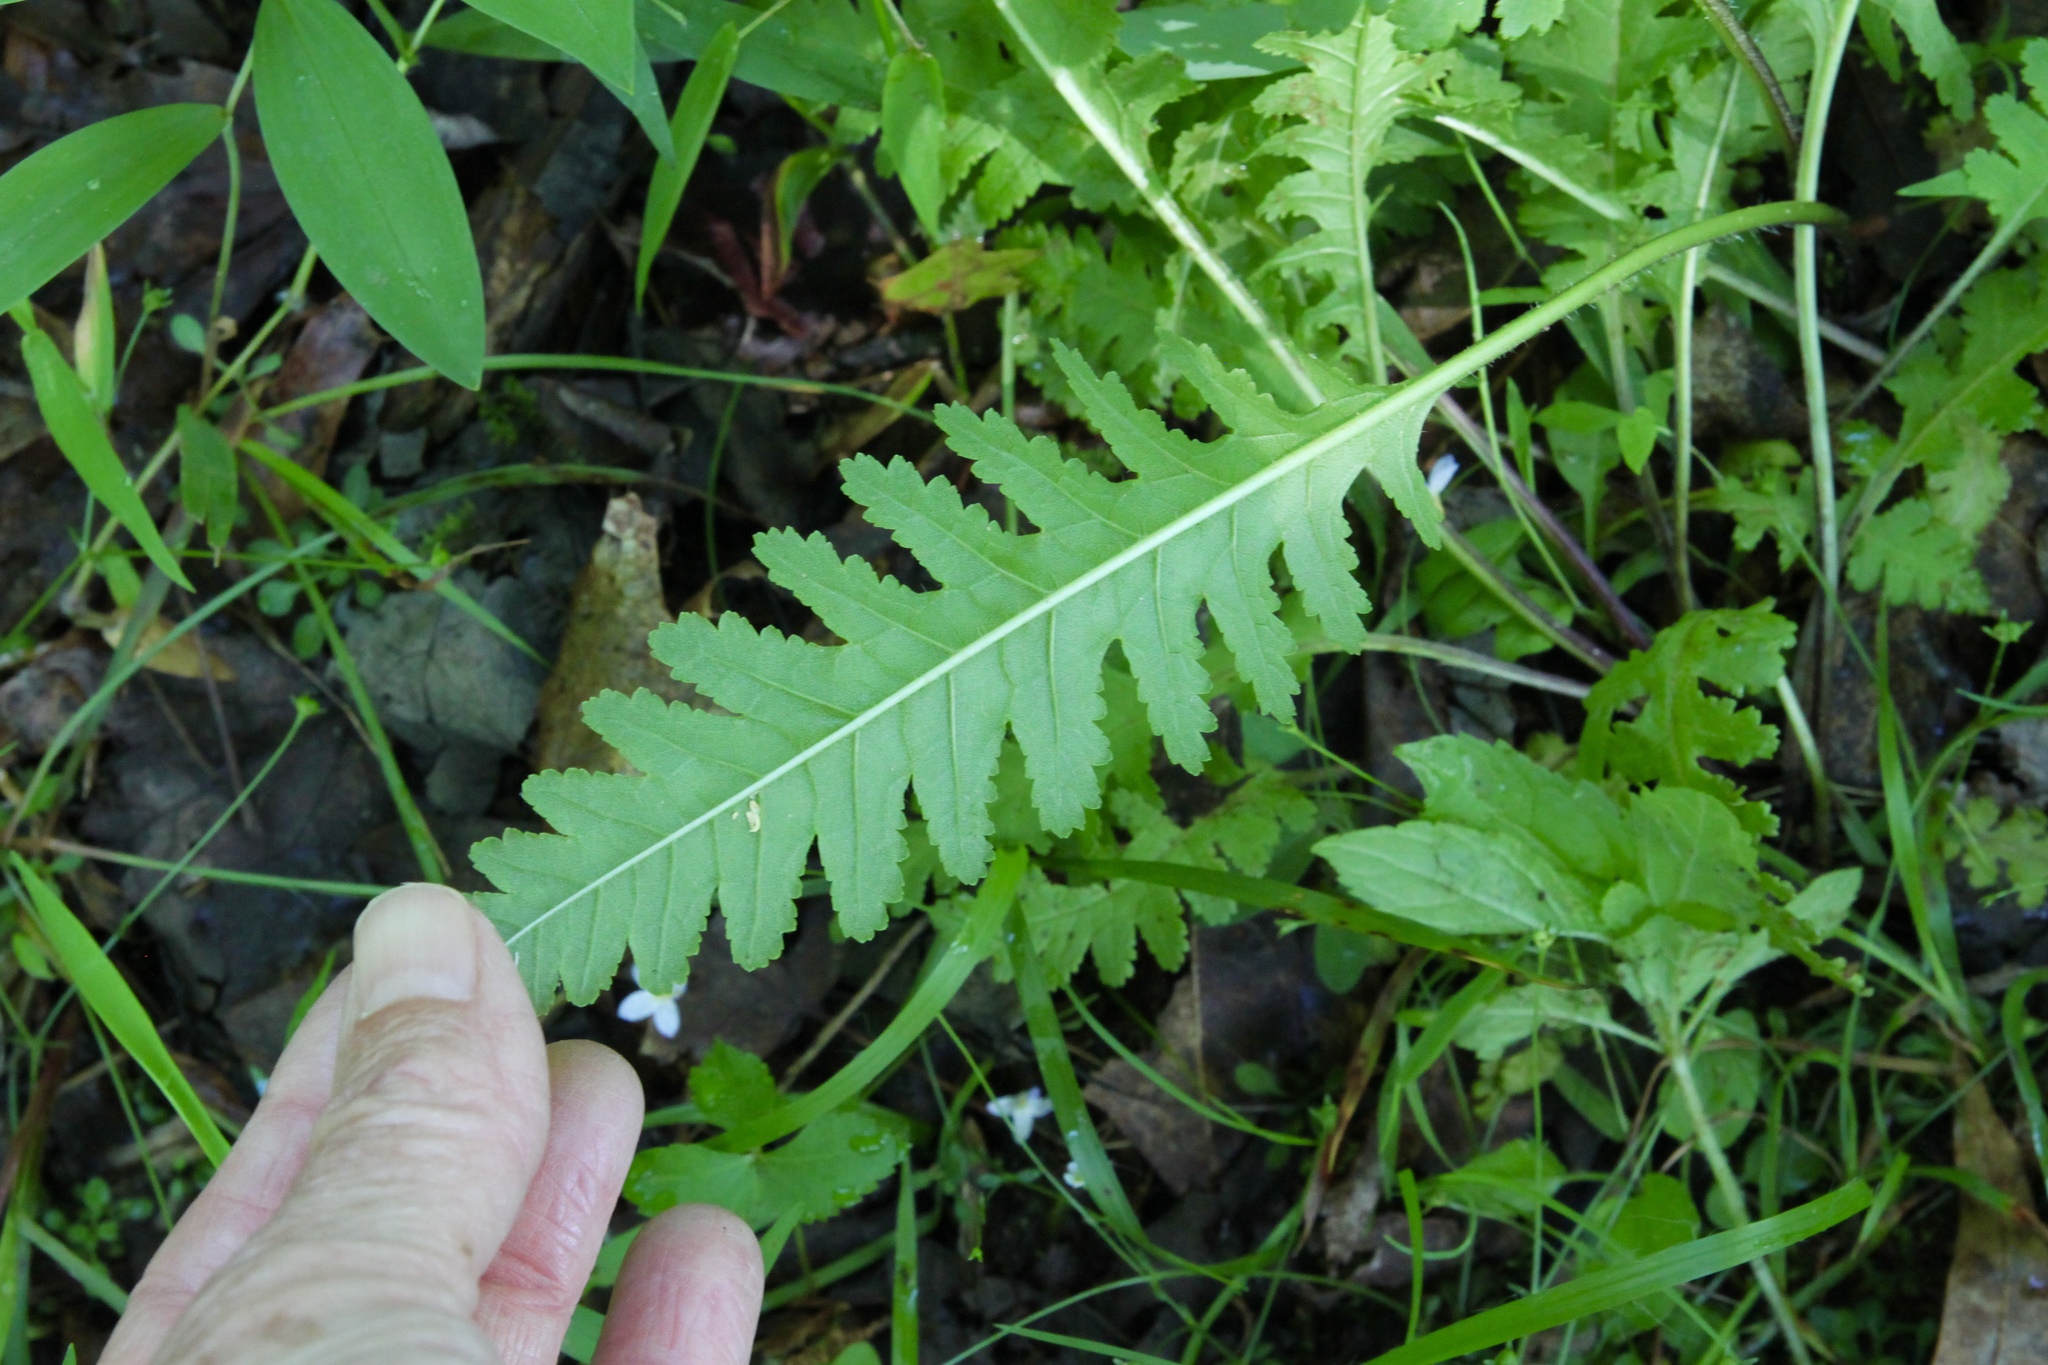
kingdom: Plantae
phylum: Tracheophyta
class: Magnoliopsida
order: Lamiales
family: Orobanchaceae
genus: Pedicularis
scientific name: Pedicularis canadensis
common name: Early lousewort
